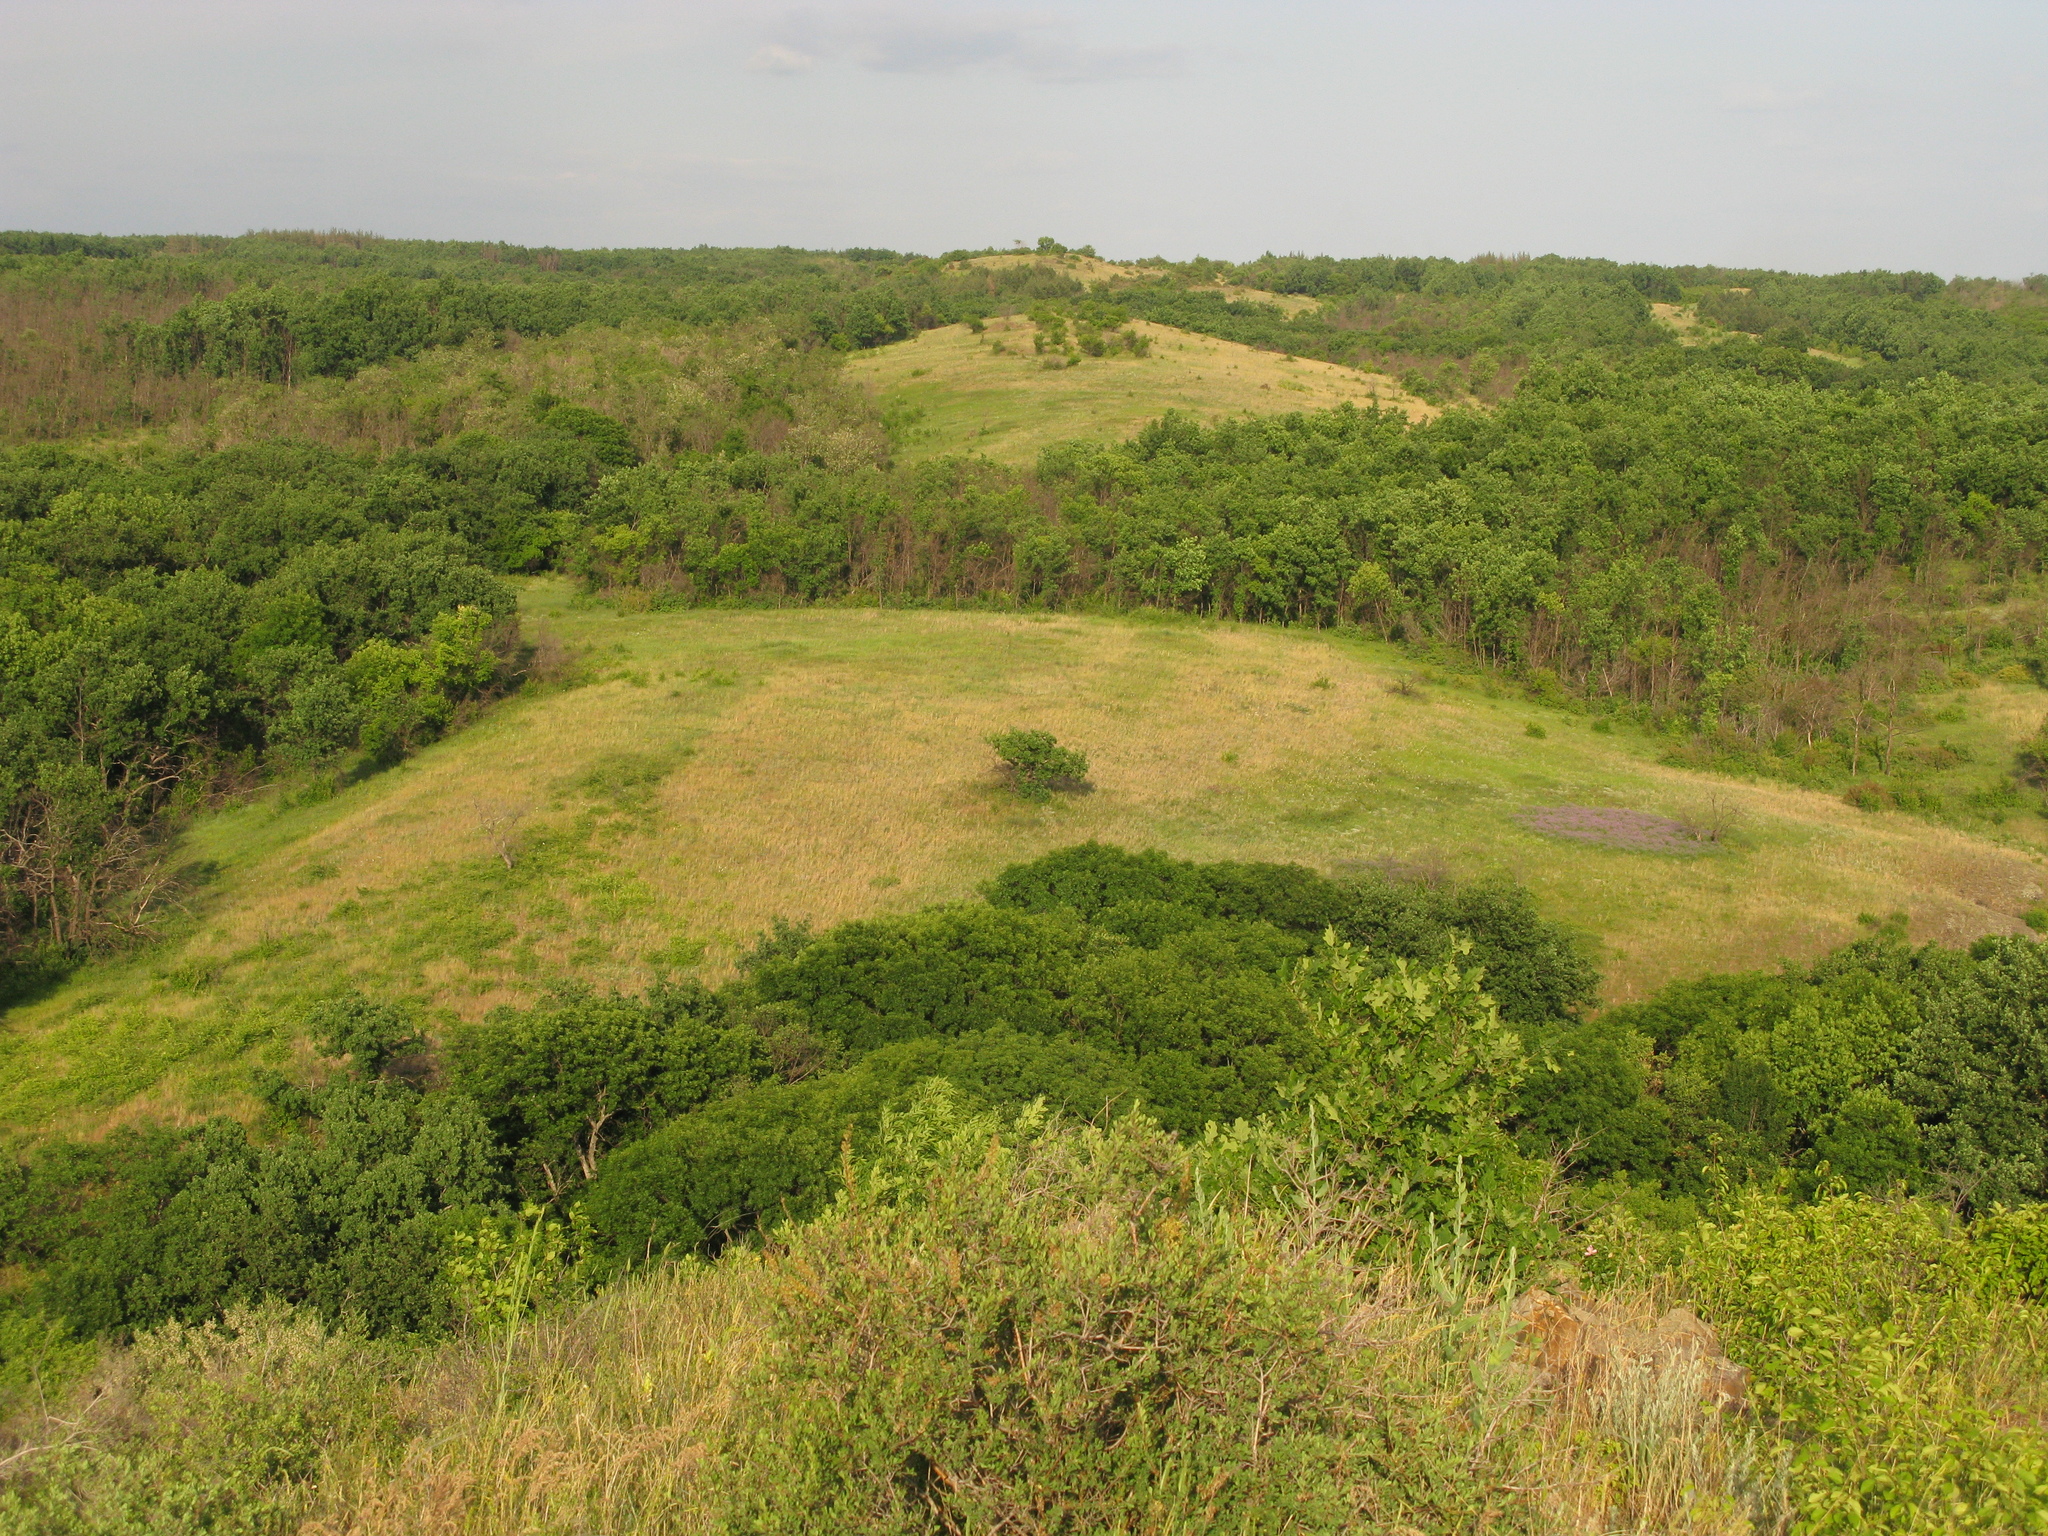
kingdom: Plantae
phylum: Tracheophyta
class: Magnoliopsida
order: Fagales
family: Fagaceae
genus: Quercus
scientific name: Quercus robur
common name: Pedunculate oak
